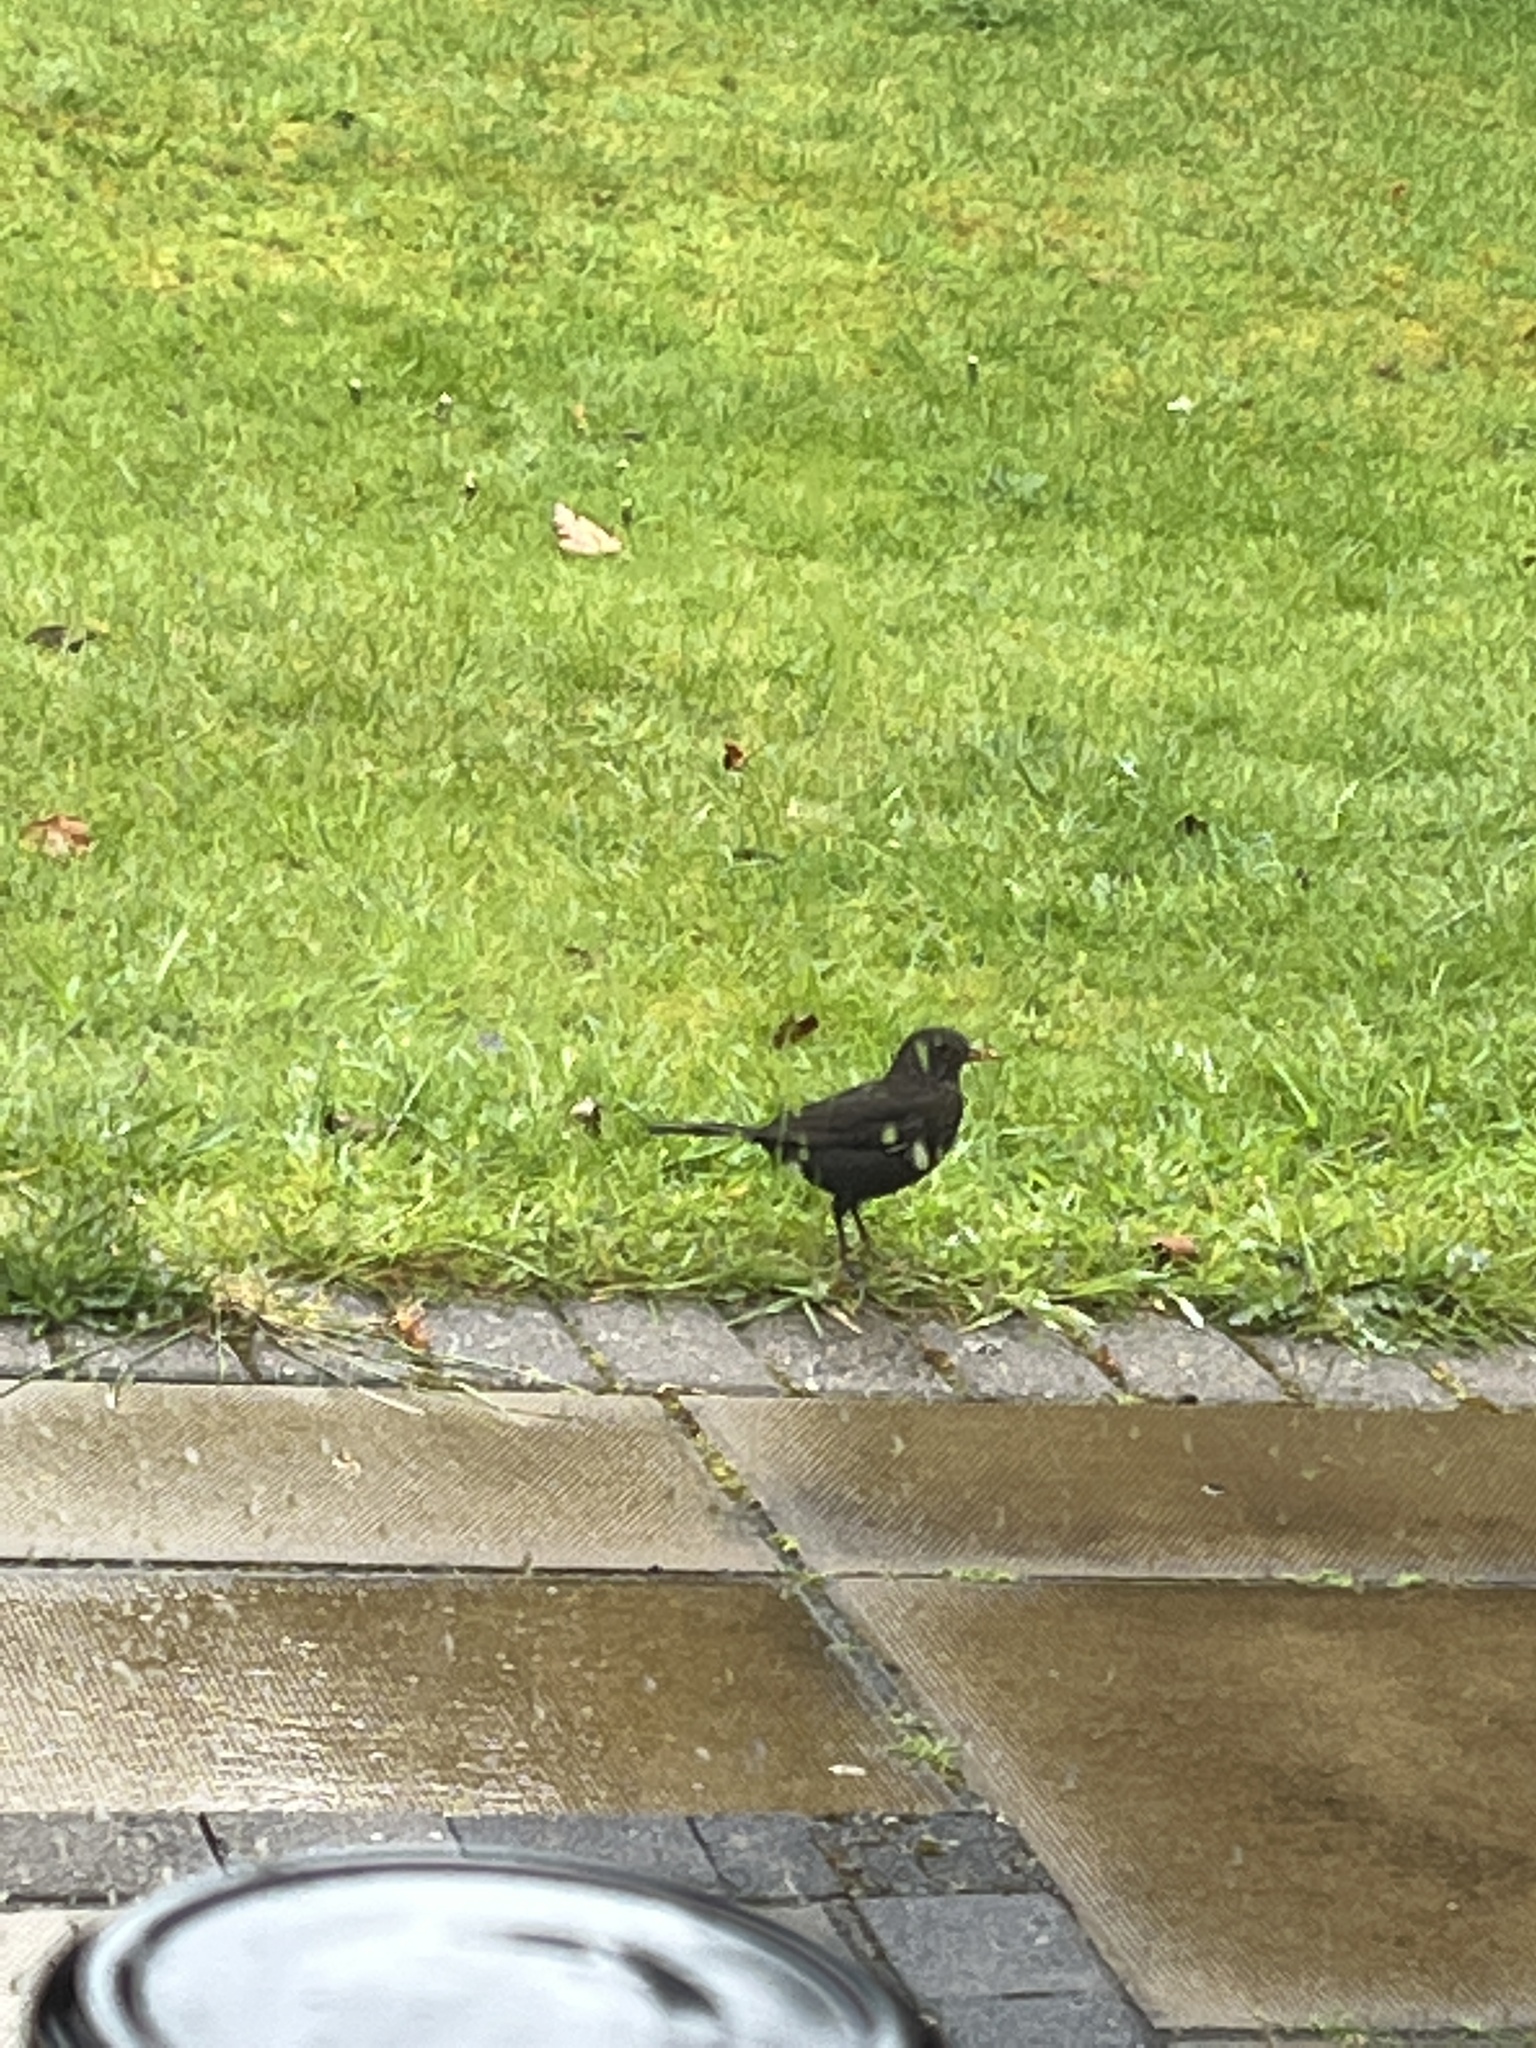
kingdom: Animalia
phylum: Chordata
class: Aves
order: Passeriformes
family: Turdidae
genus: Turdus
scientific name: Turdus merula
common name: Common blackbird
